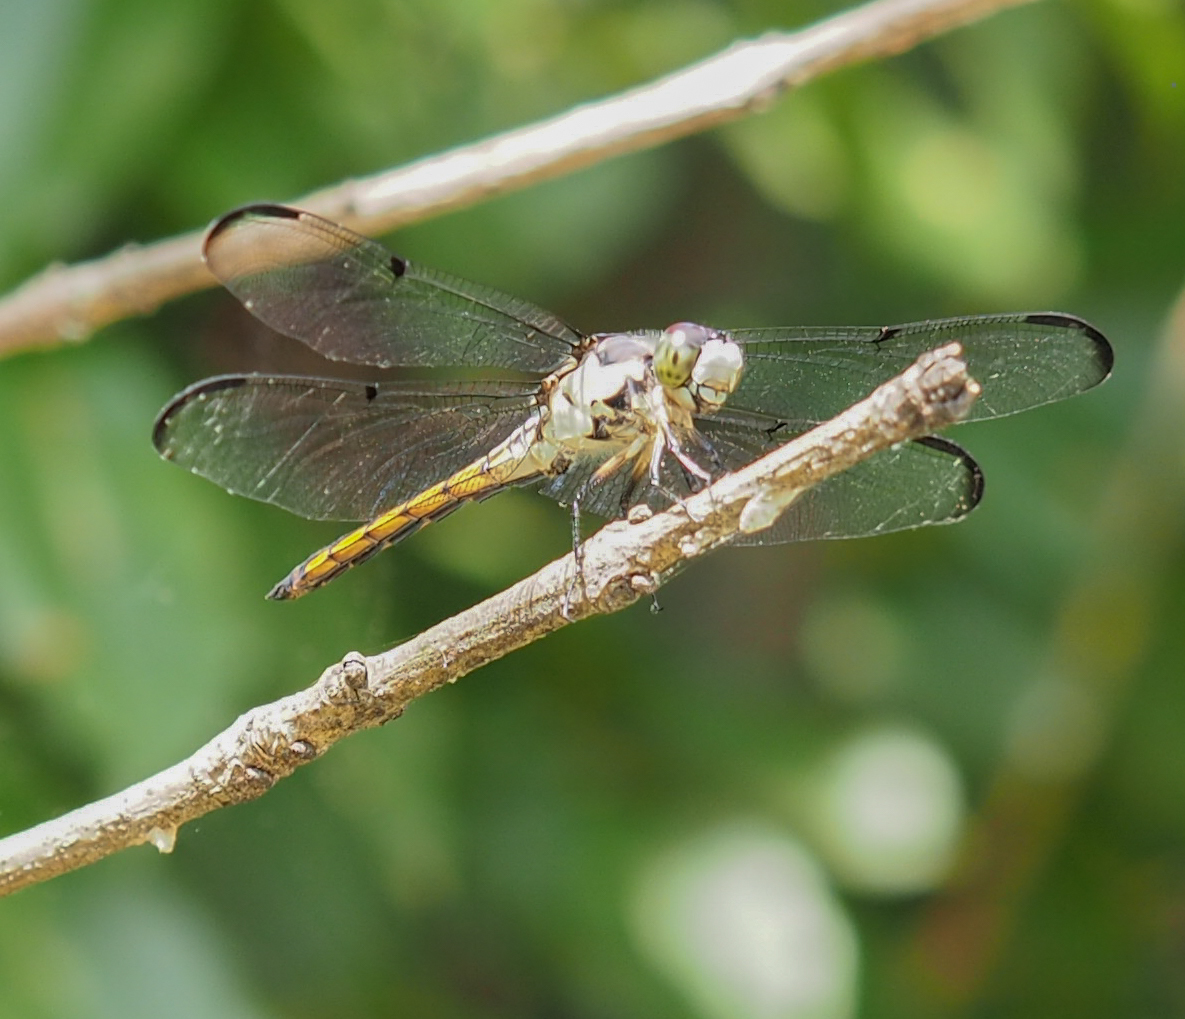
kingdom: Animalia
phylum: Arthropoda
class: Insecta
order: Odonata
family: Libellulidae
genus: Libellula
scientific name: Libellula vibrans
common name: Great blue skimmer
